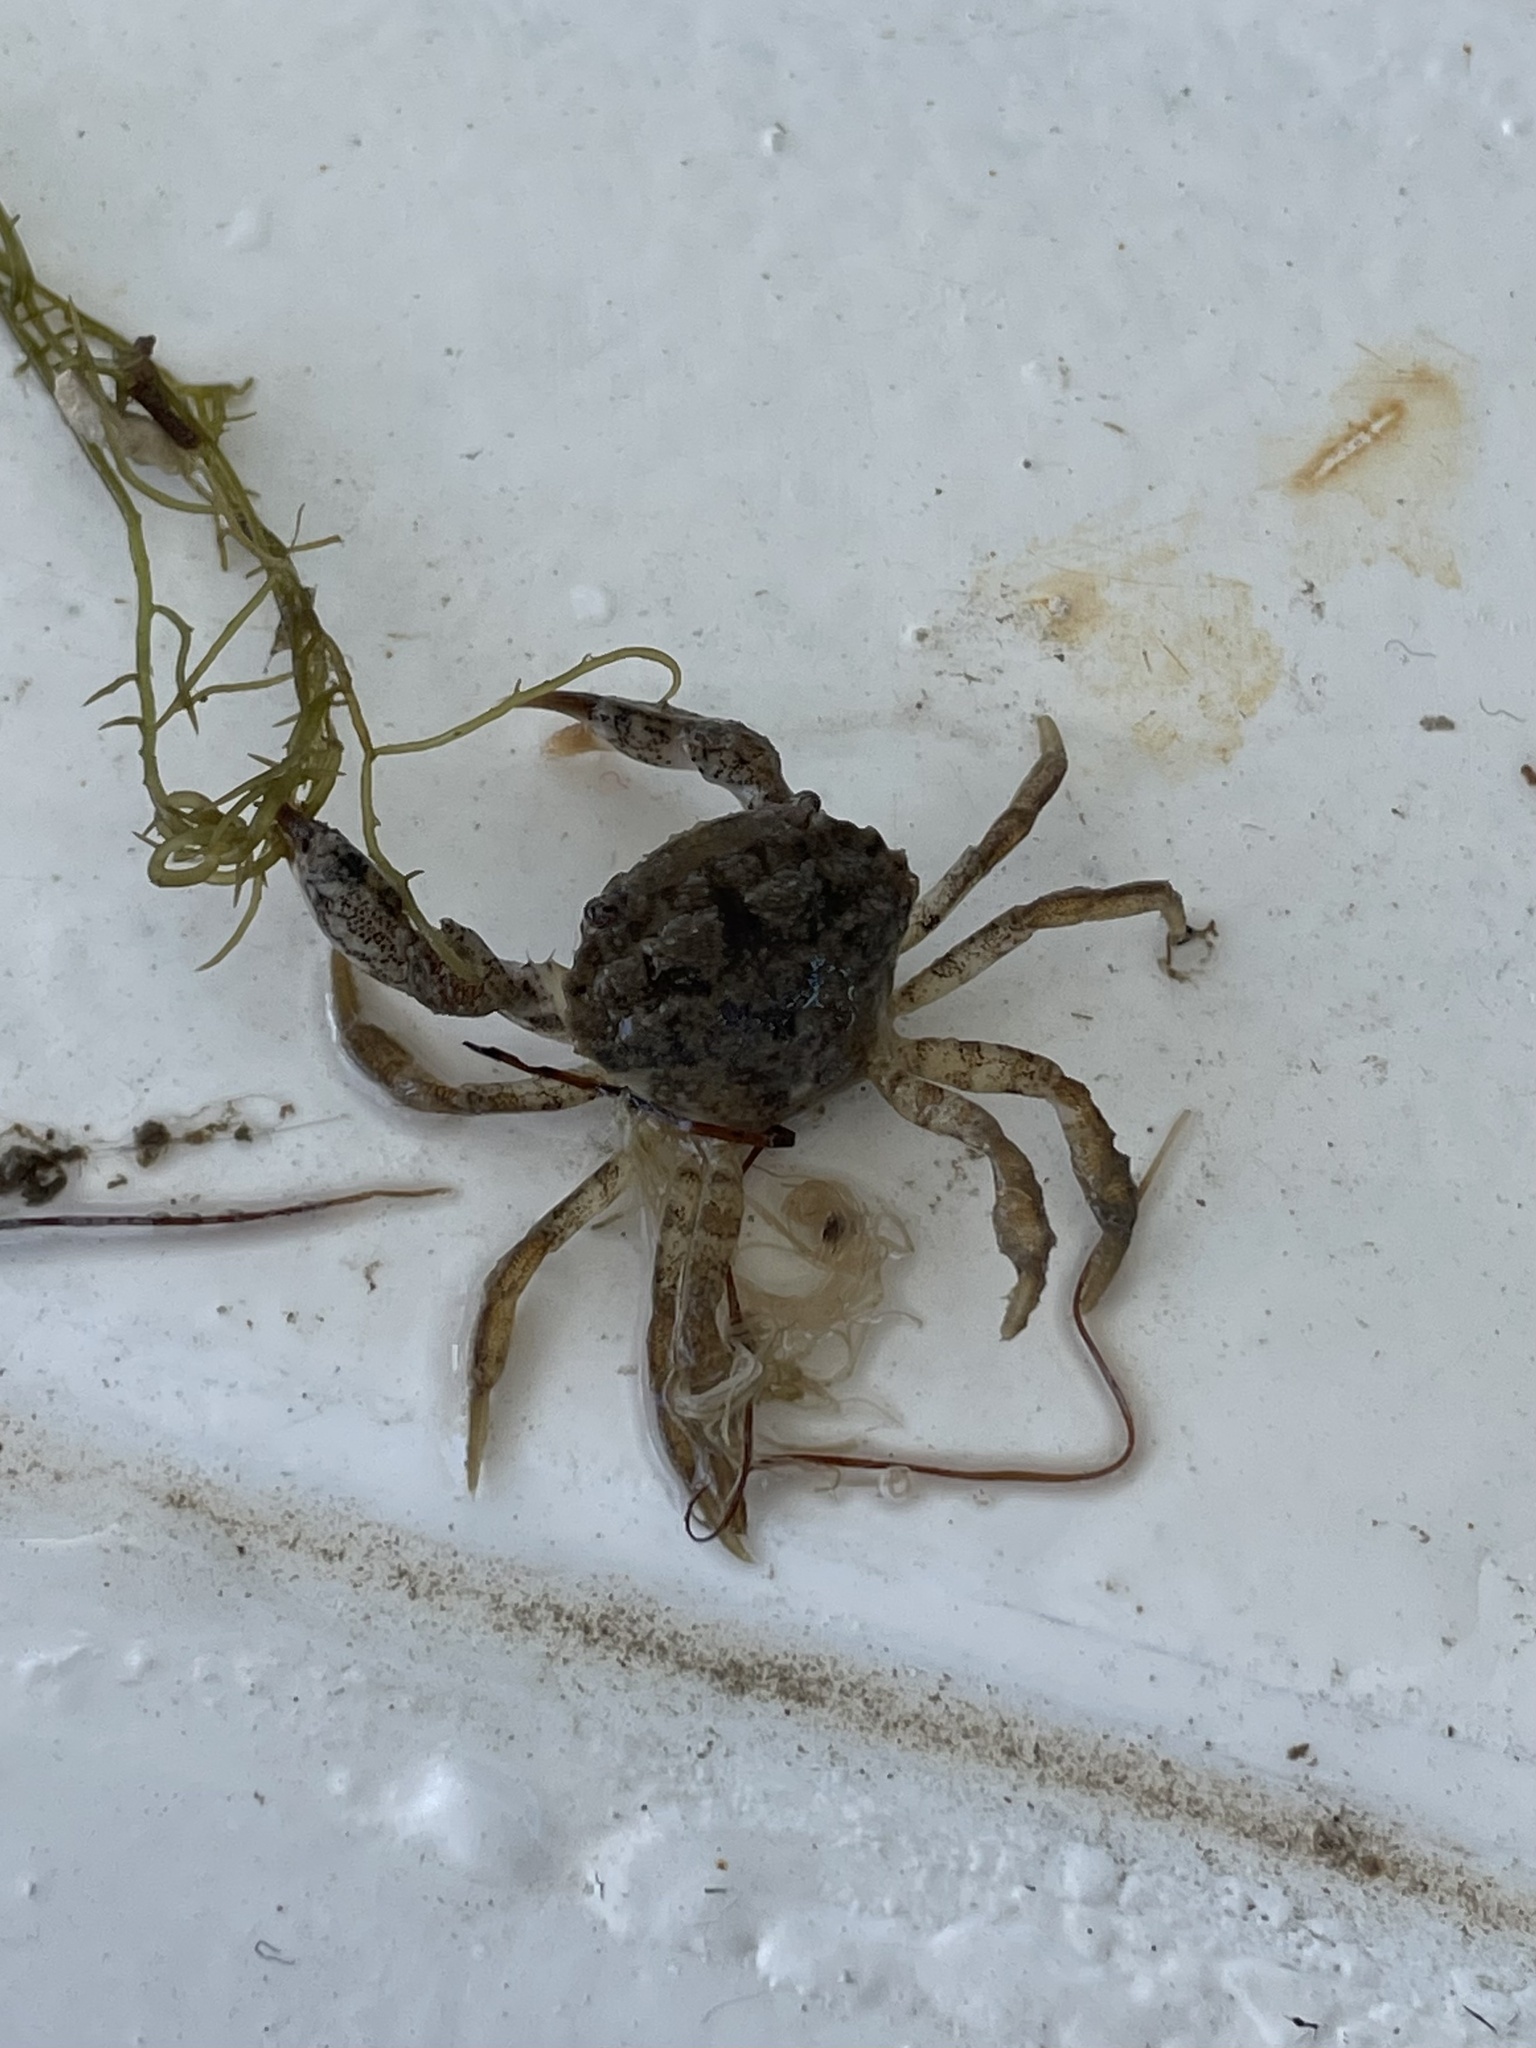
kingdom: Animalia
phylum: Arthropoda
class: Malacostraca
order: Decapoda
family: Panopeidae
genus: Rhithropanopeus
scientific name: Rhithropanopeus harrisii
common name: Dwarf crab
